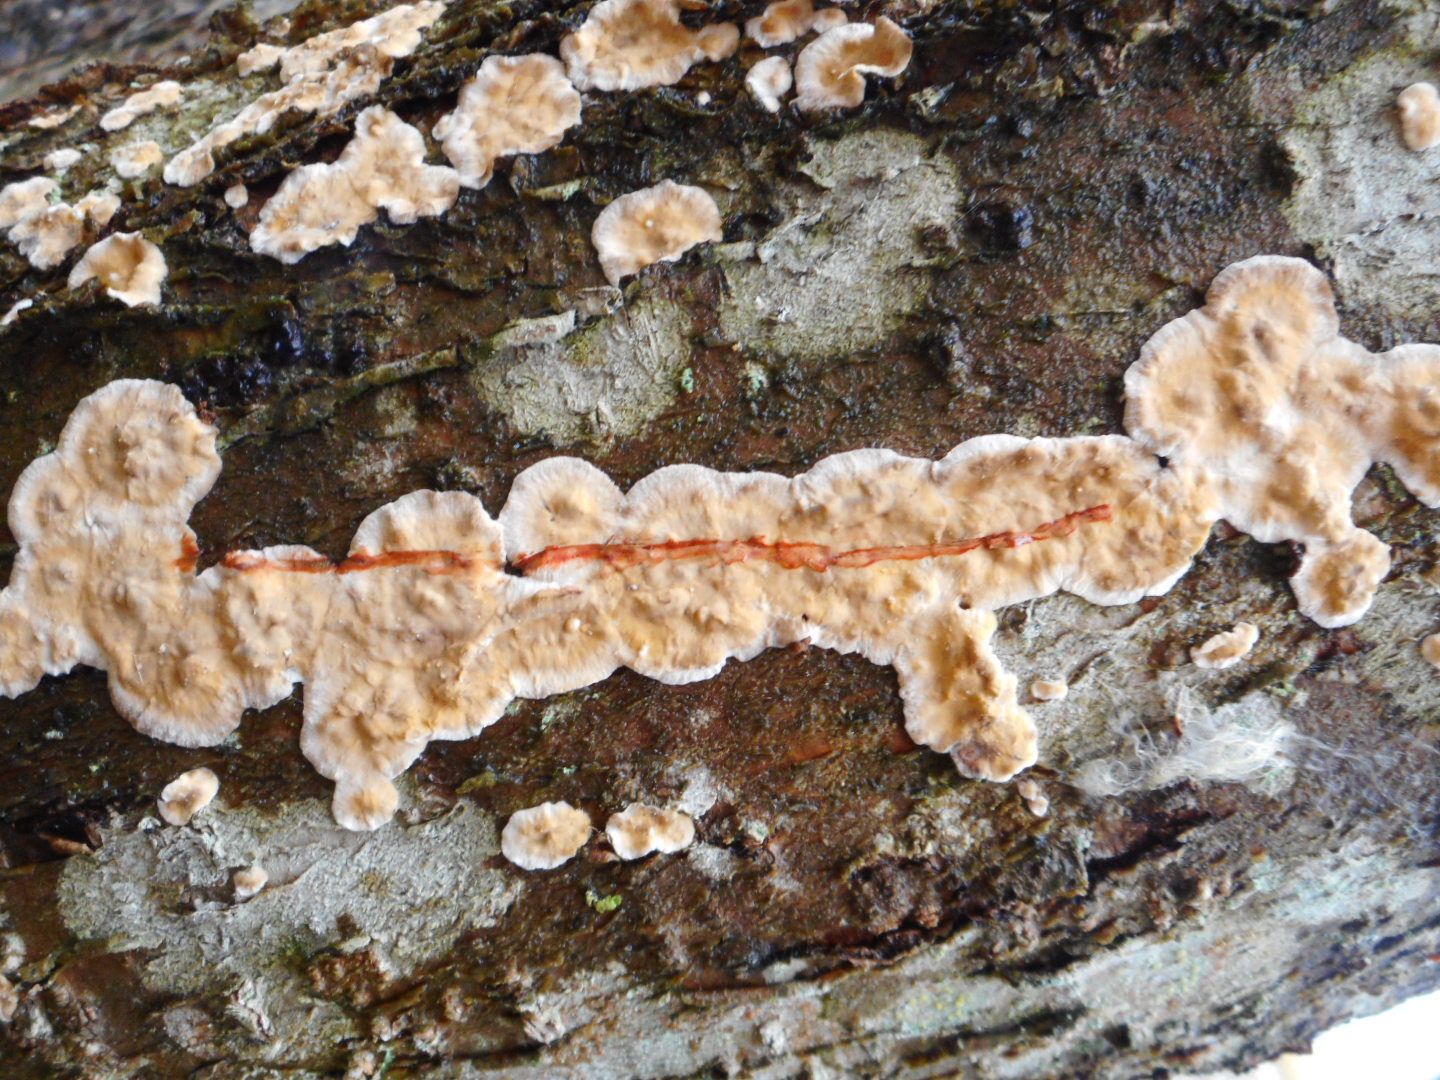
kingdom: Fungi
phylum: Basidiomycota
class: Agaricomycetes
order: Russulales
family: Stereaceae
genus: Stereum
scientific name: Stereum rugosum
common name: Bleeding broadleaf crust
